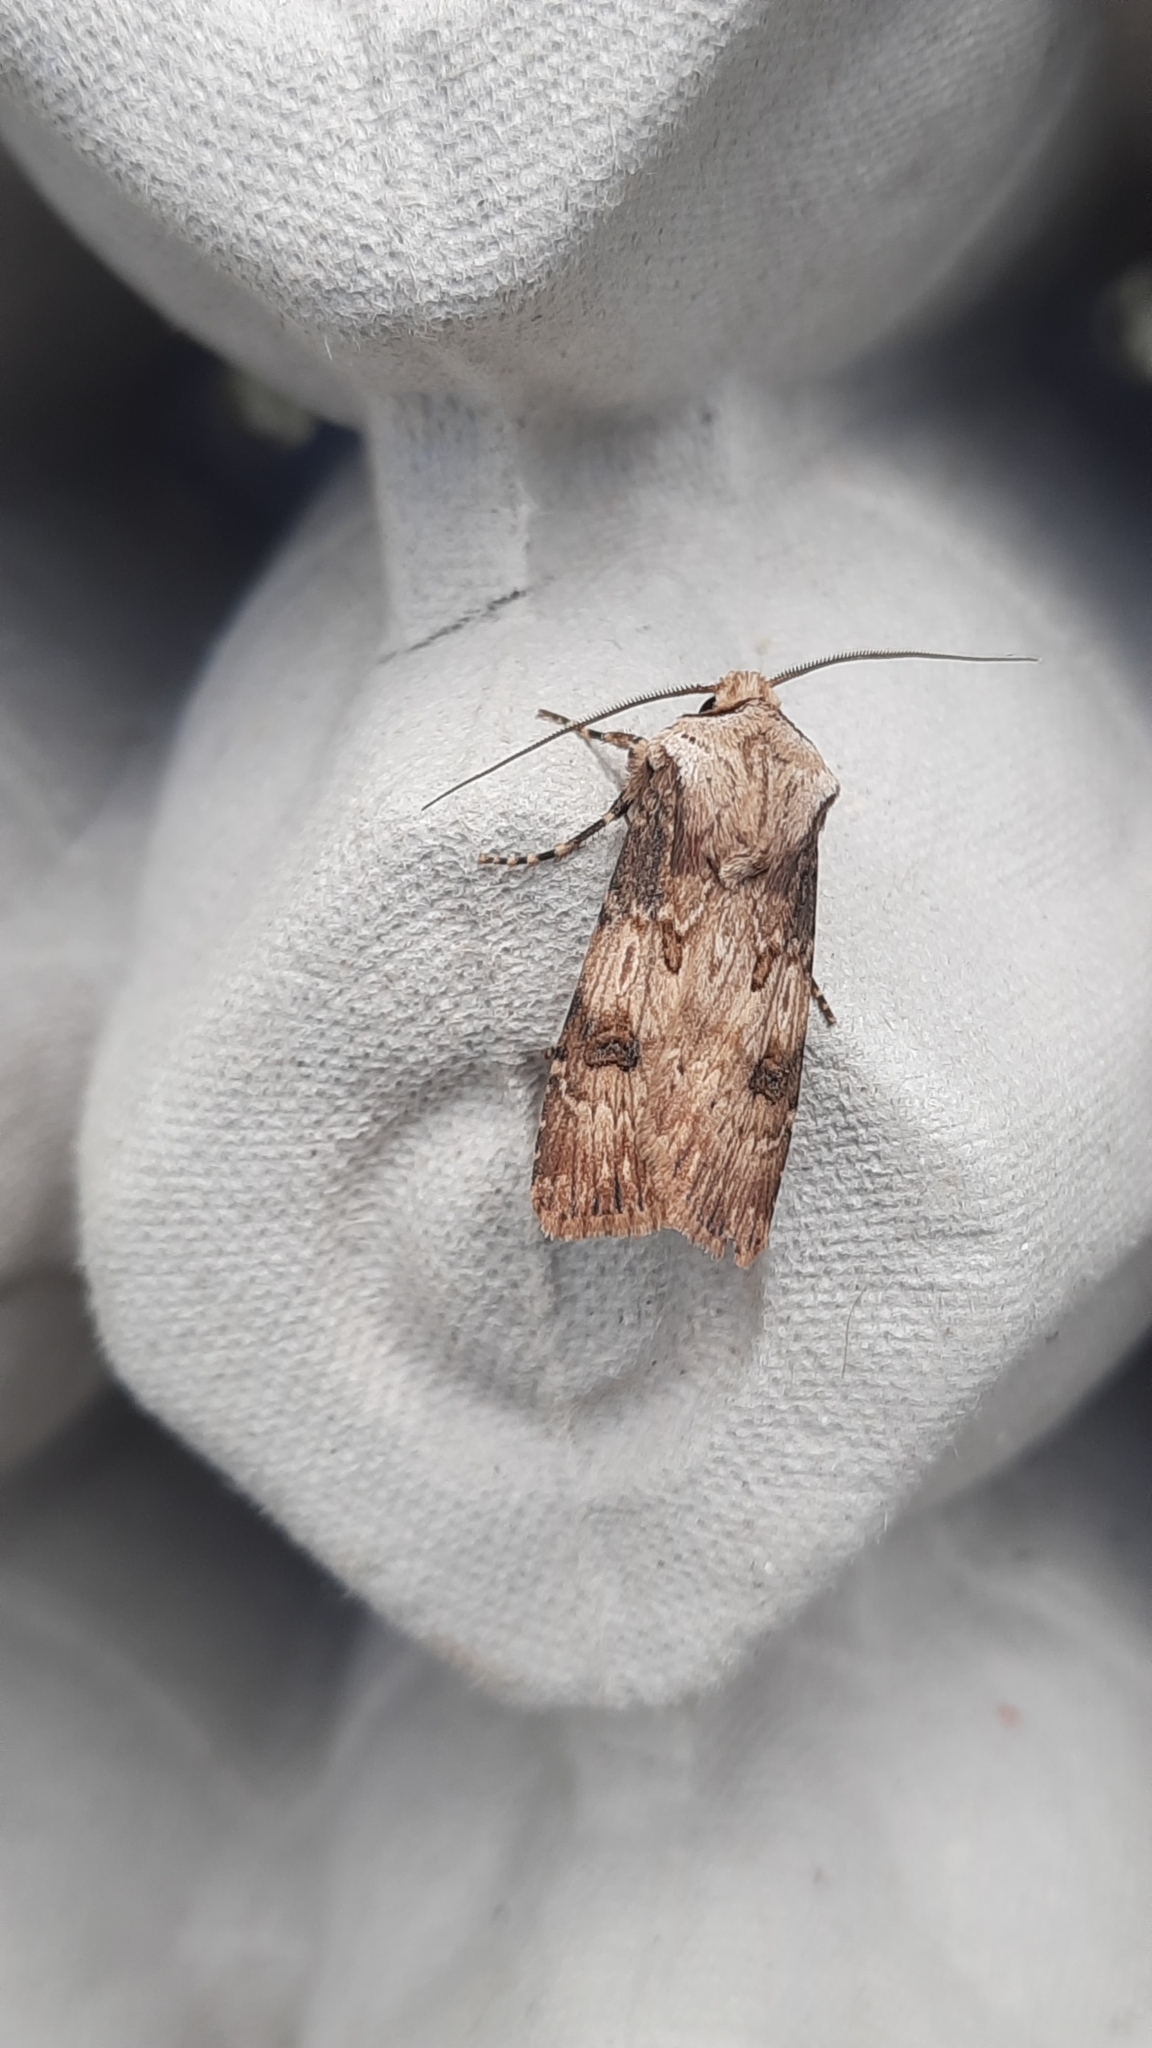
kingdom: Animalia
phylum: Arthropoda
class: Insecta
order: Lepidoptera
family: Noctuidae
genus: Agrotis
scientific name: Agrotis puta
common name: Shuttle-shaped dart
